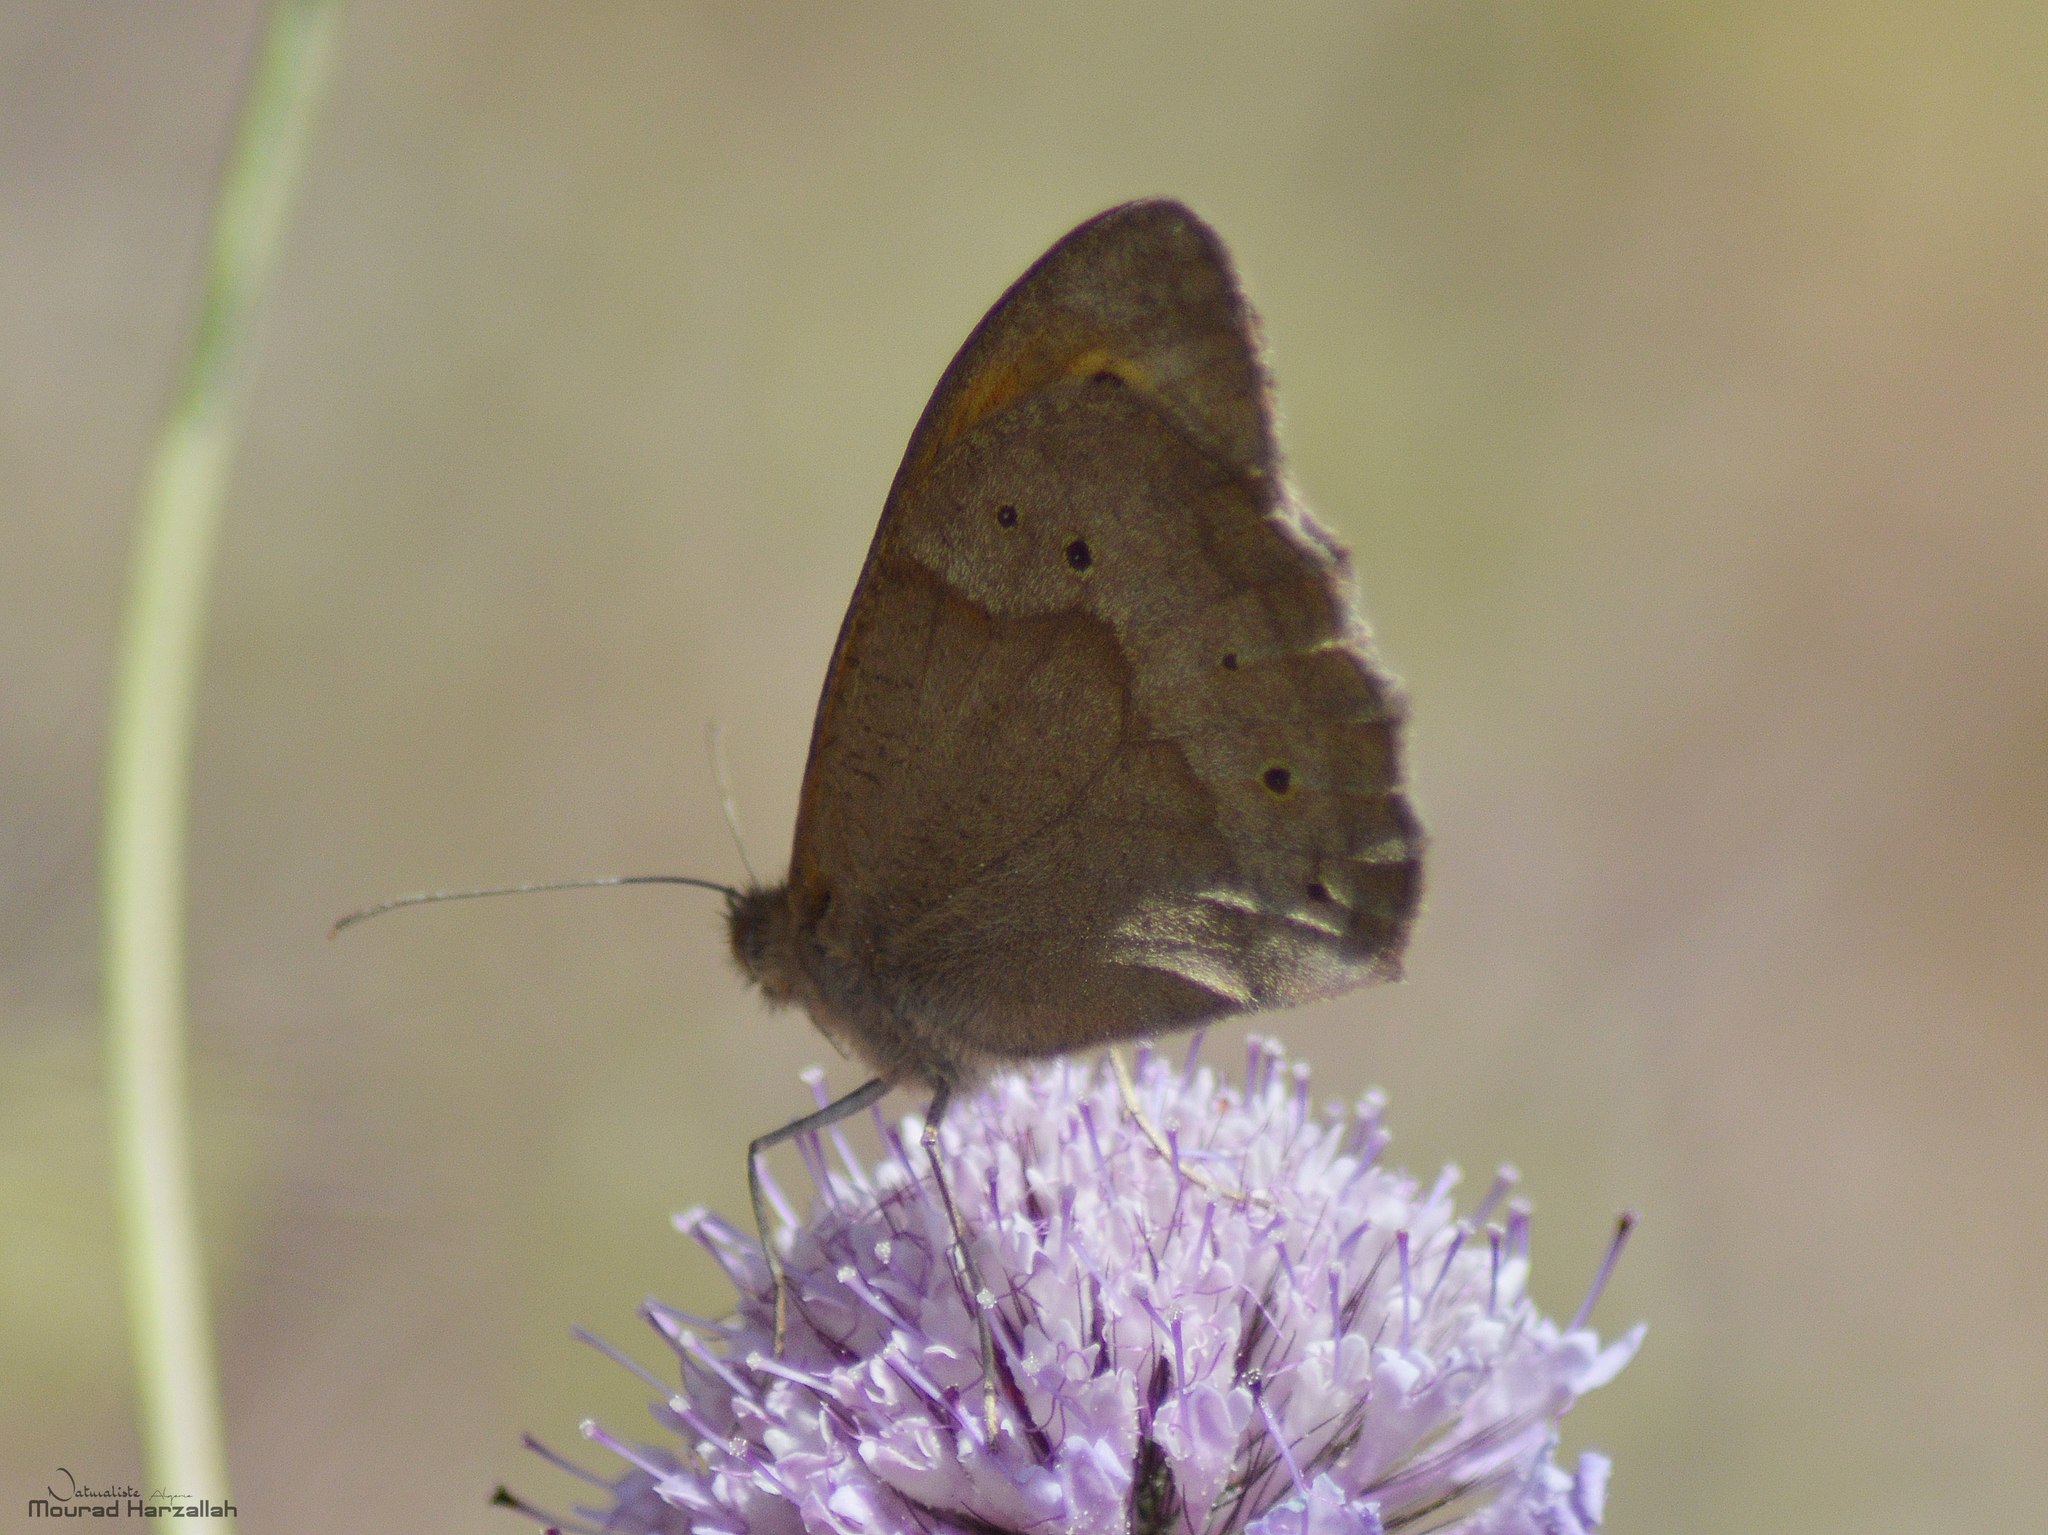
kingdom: Animalia
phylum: Arthropoda
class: Insecta
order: Lepidoptera
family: Nymphalidae
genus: Maniola
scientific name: Maniola jurtina
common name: Meadow brown
